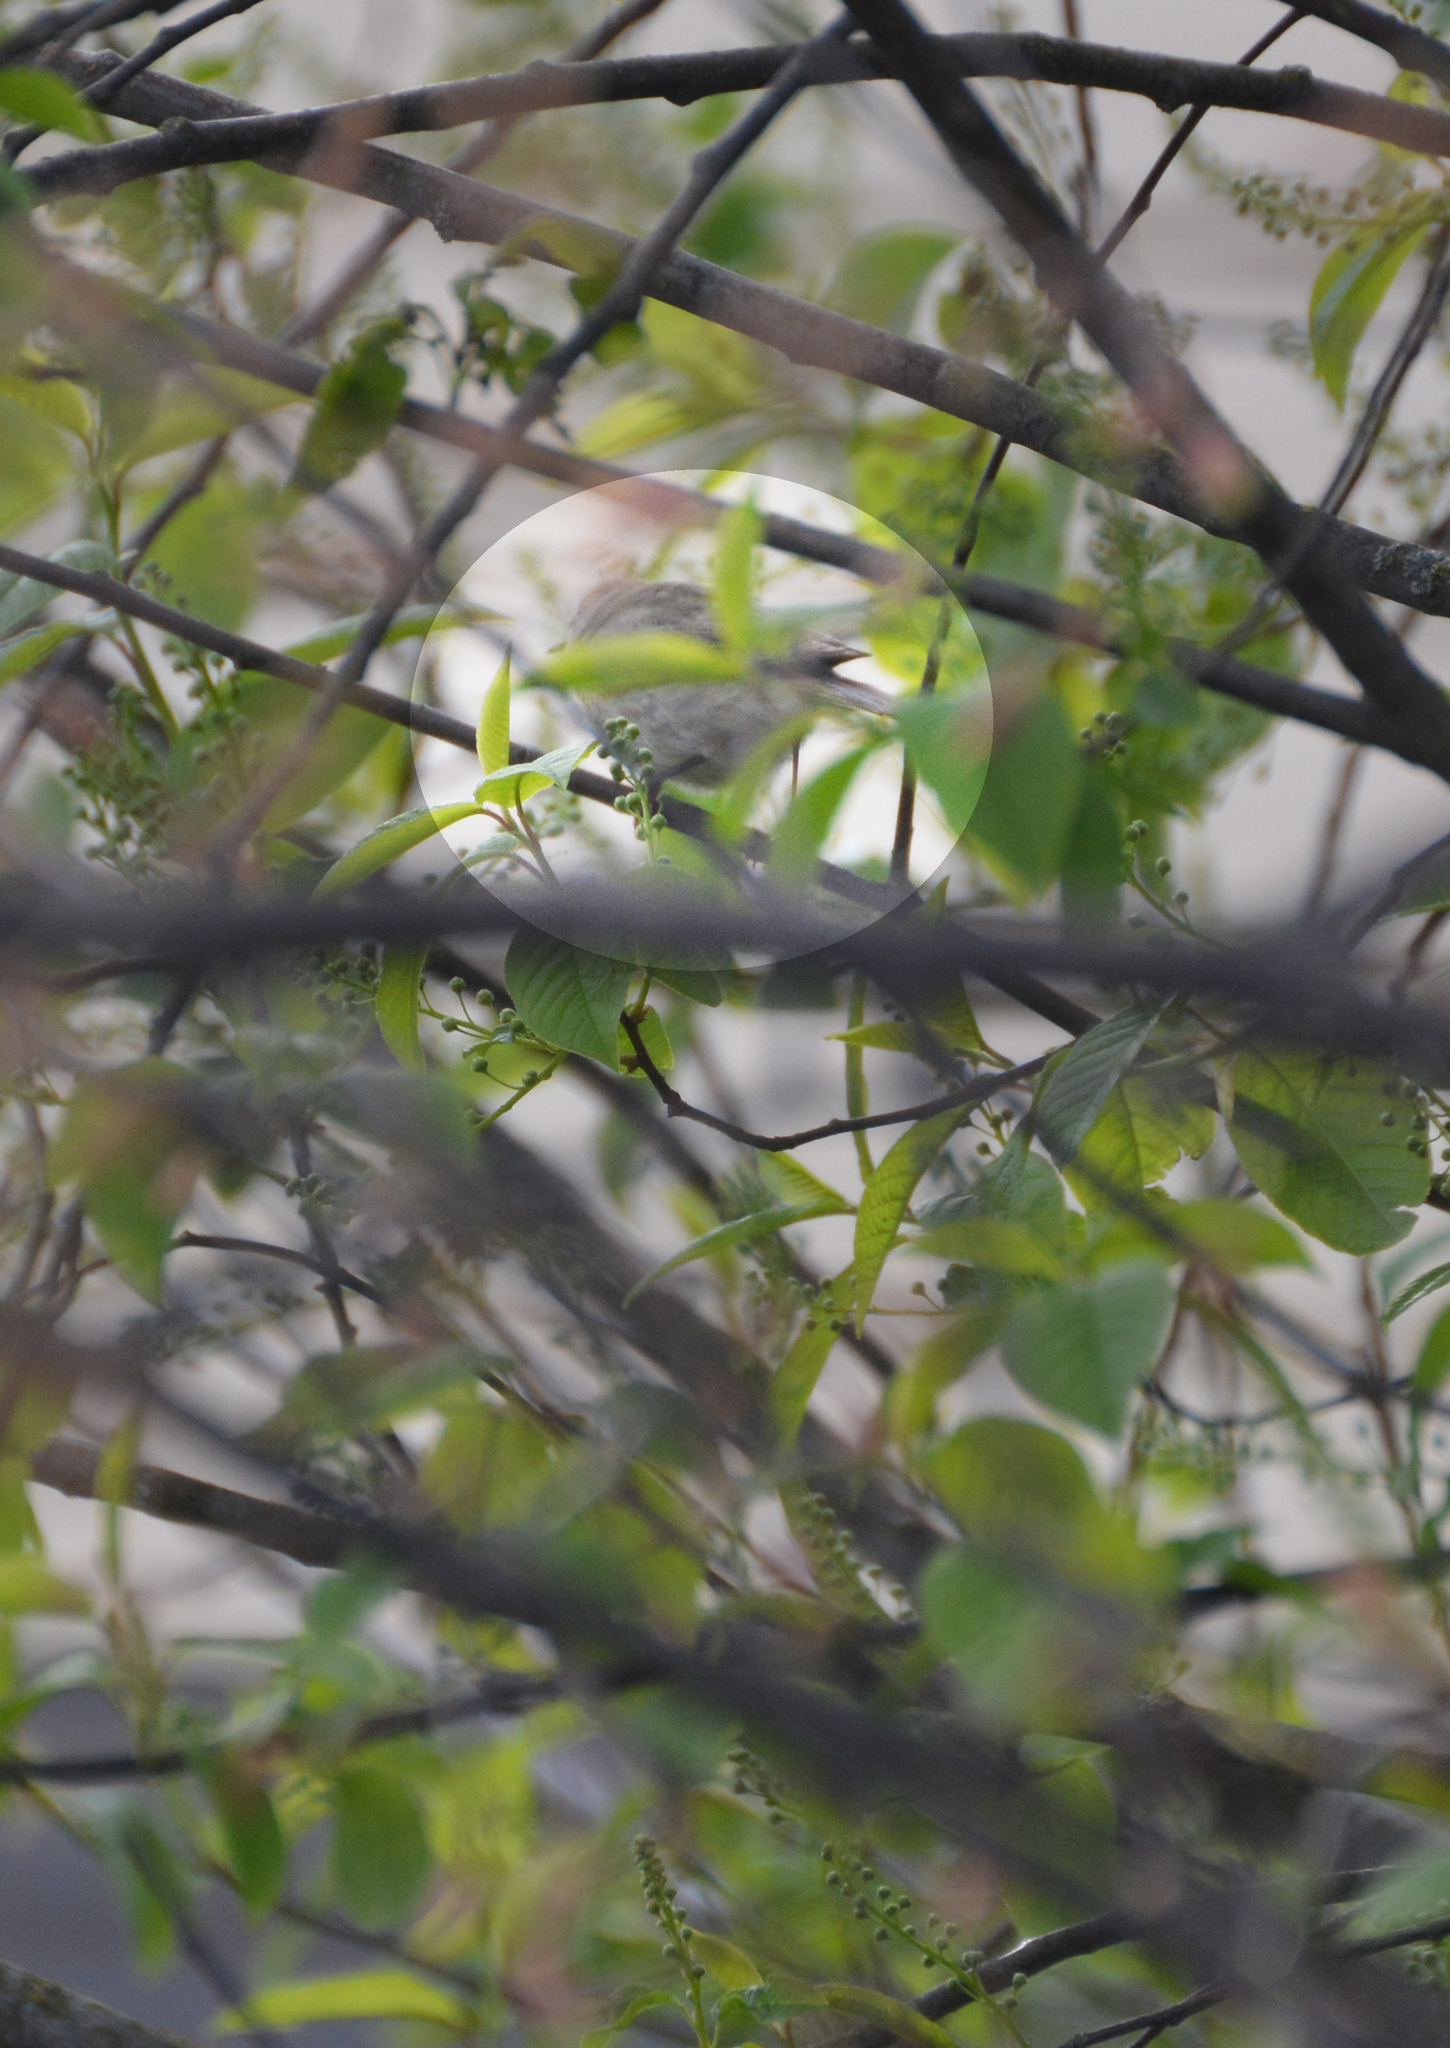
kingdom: Animalia
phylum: Chordata
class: Aves
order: Passeriformes
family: Phylloscopidae
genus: Phylloscopus
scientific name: Phylloscopus collybita
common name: Common chiffchaff
